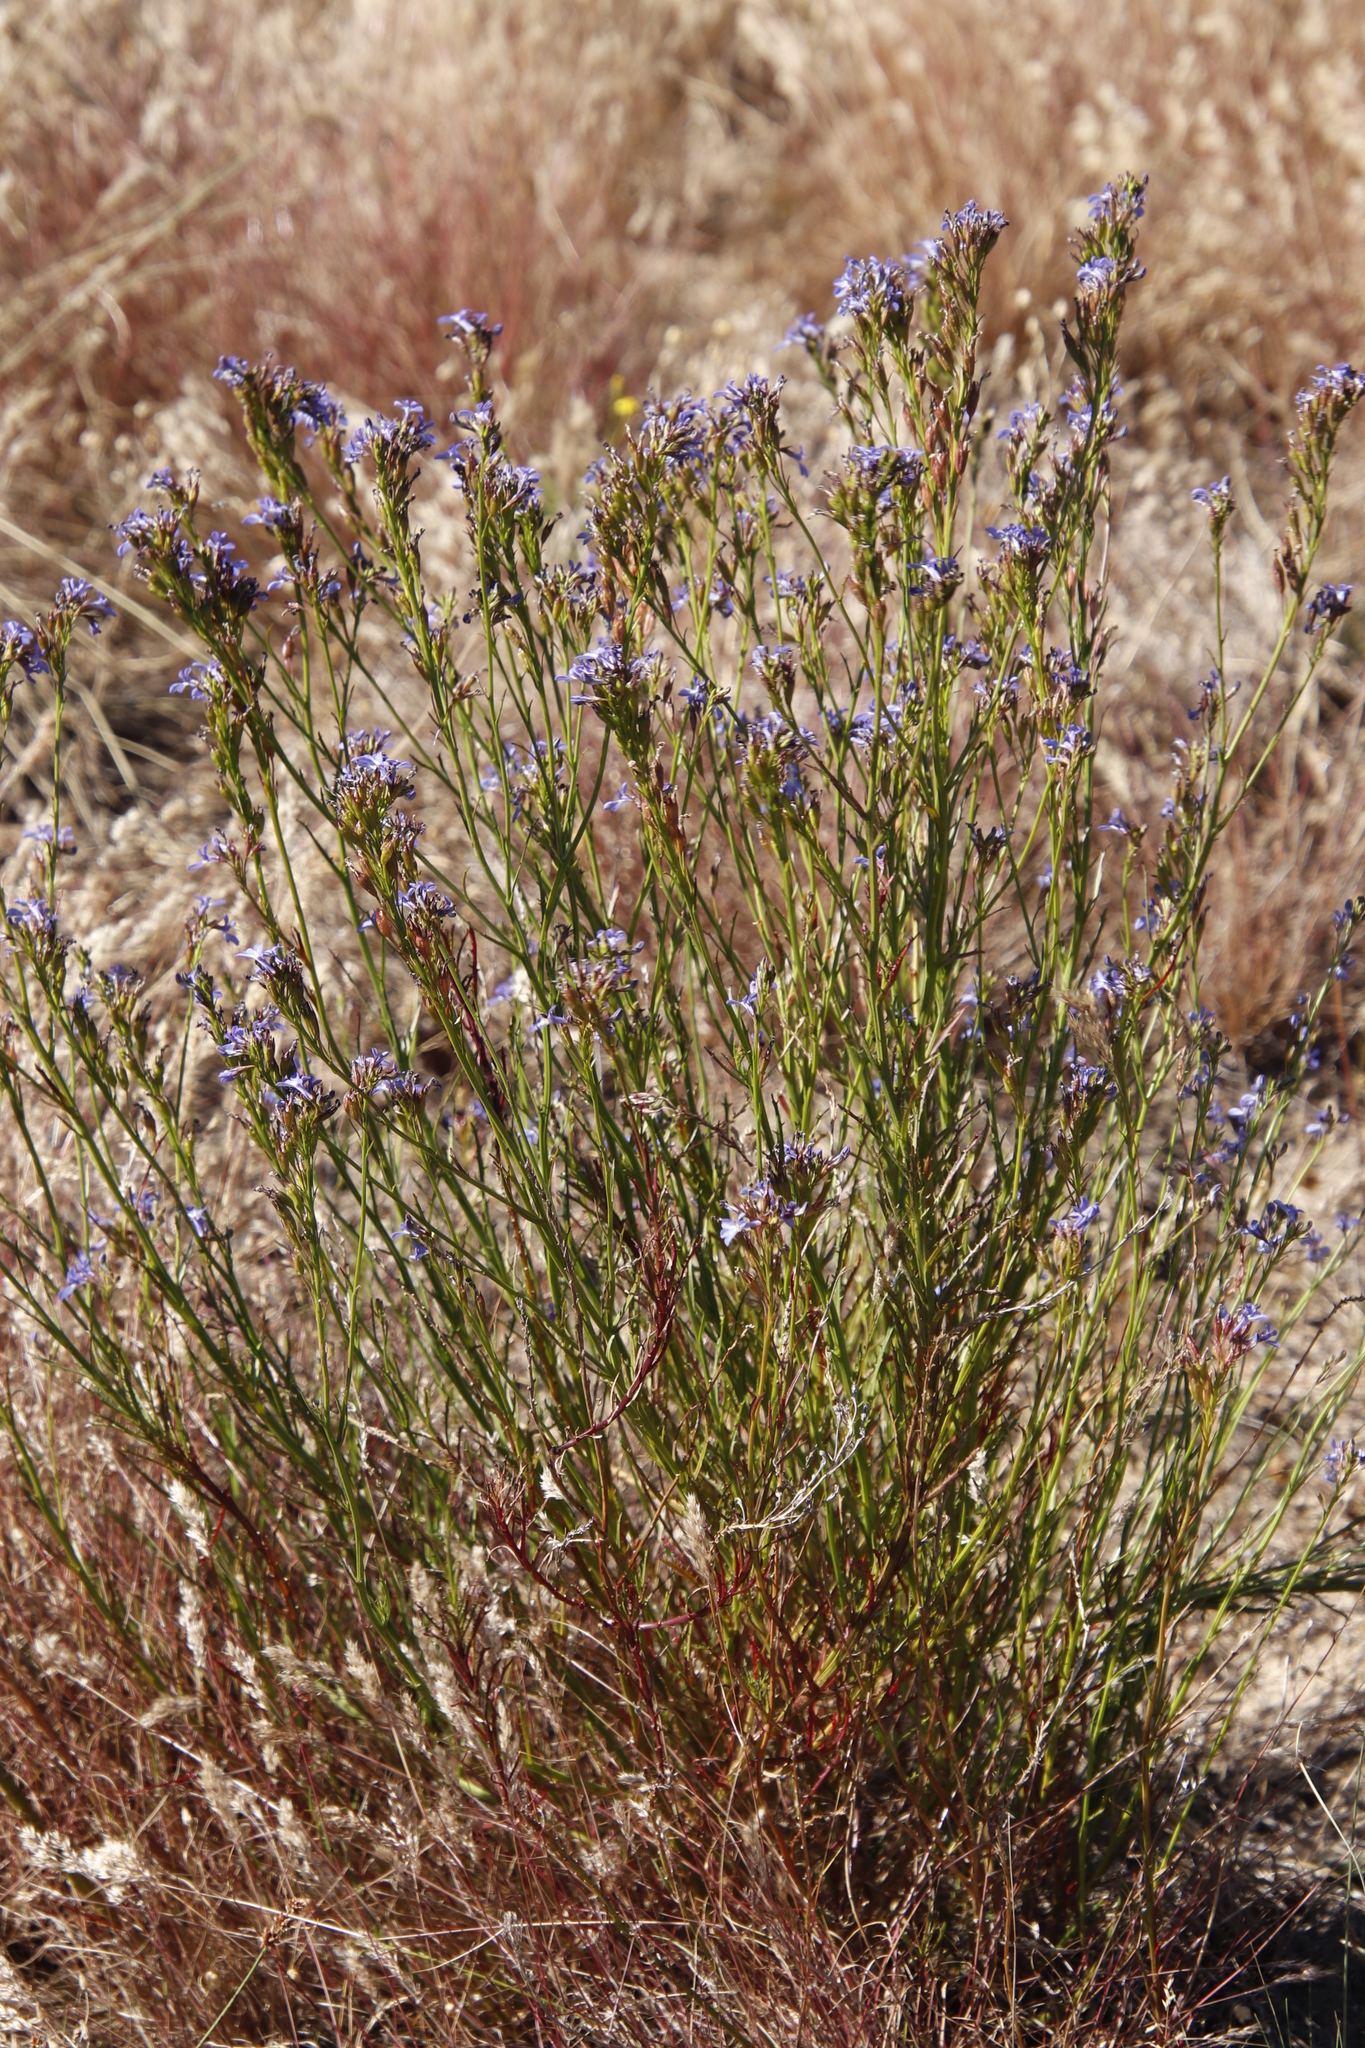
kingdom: Plantae
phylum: Tracheophyta
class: Magnoliopsida
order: Asterales
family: Campanulaceae
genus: Lobelia
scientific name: Lobelia comosa
